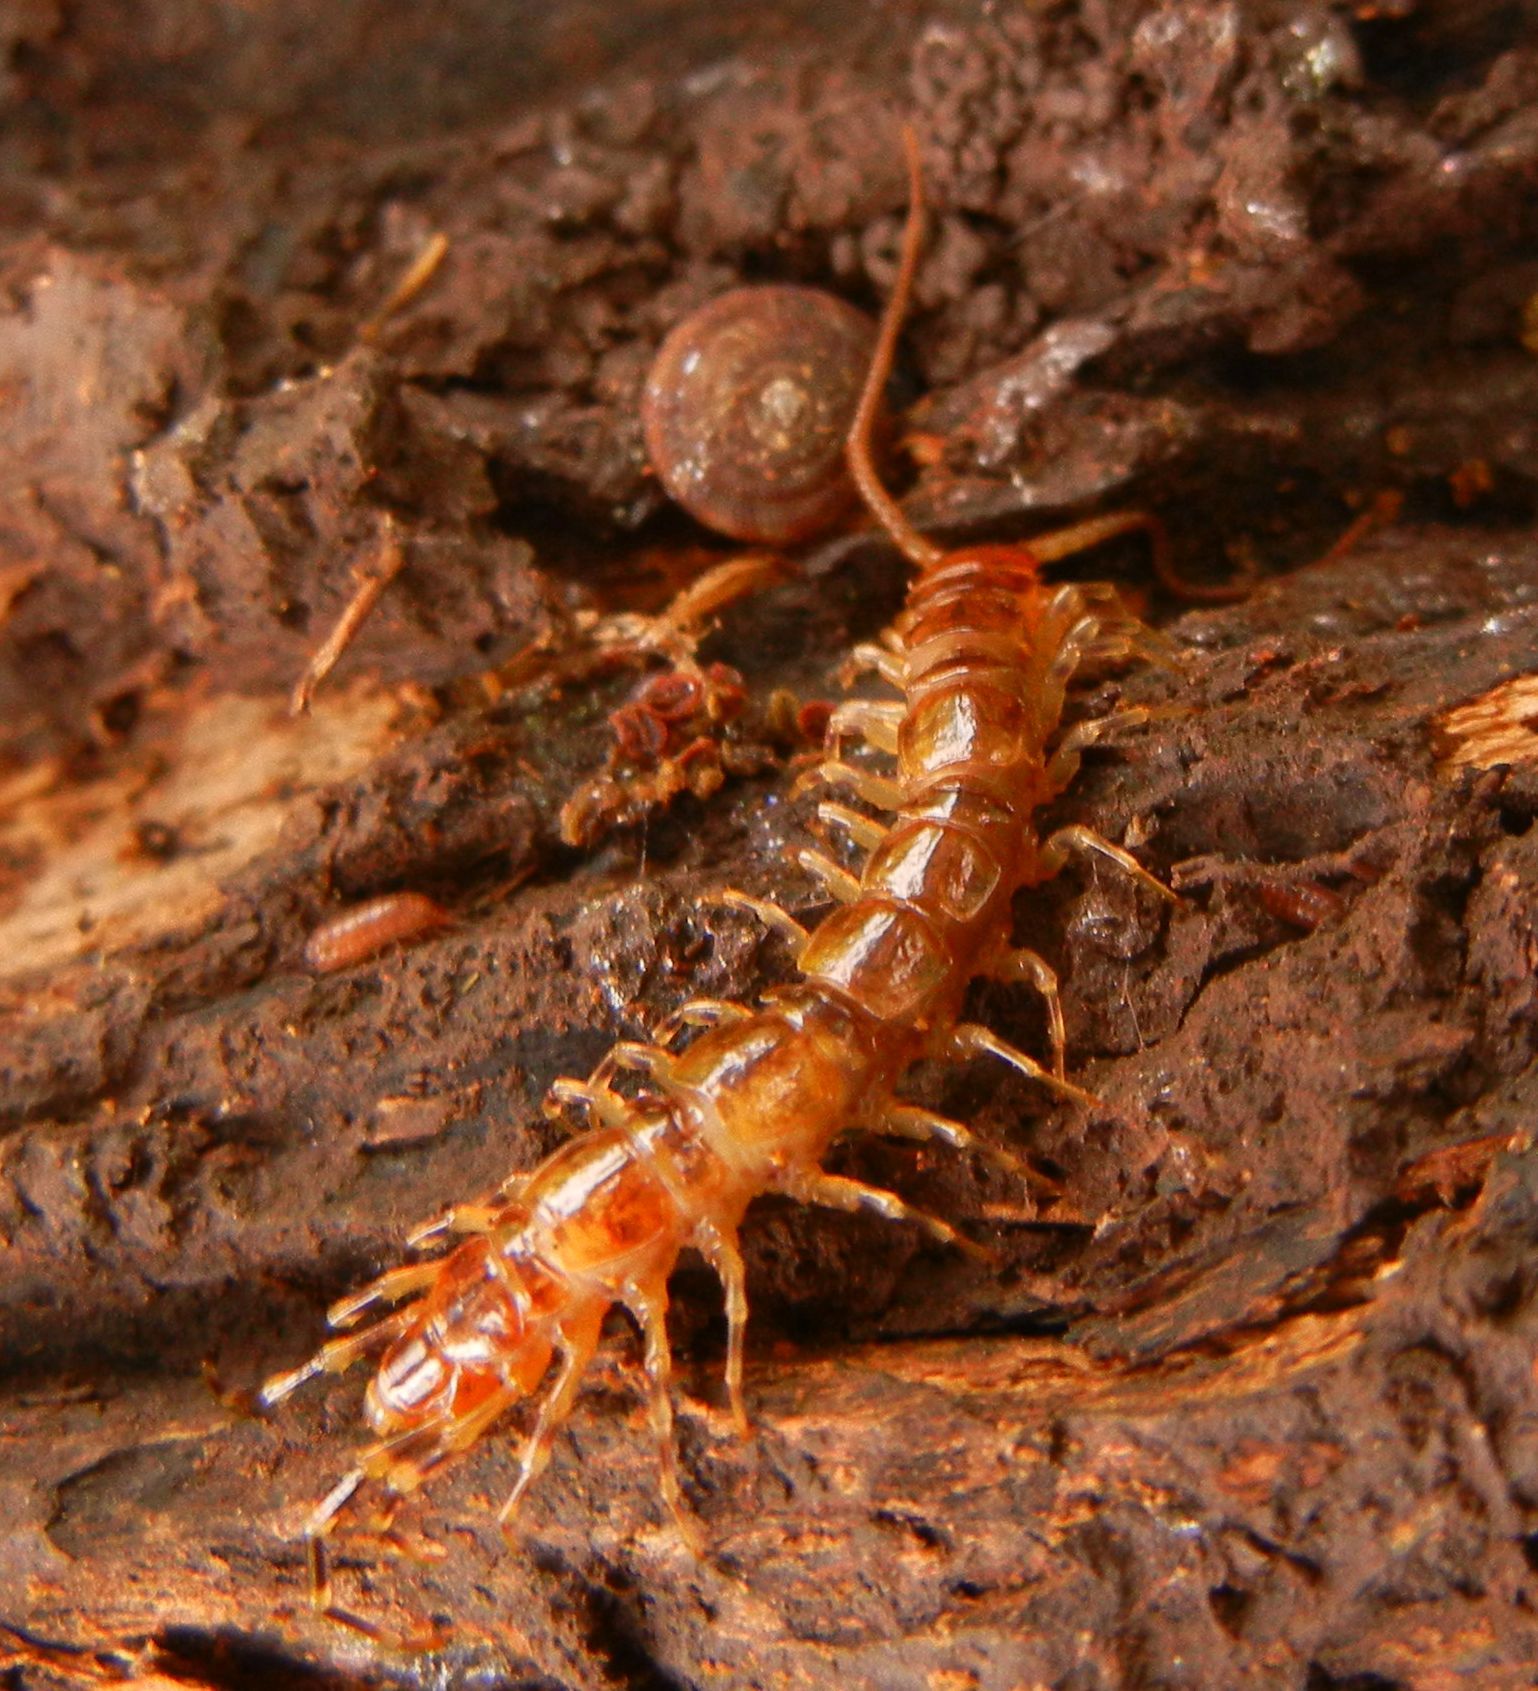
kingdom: Animalia
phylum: Arthropoda
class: Chilopoda
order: Lithobiomorpha
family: Lithobiidae
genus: Lithobius
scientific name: Lithobius variegatus
